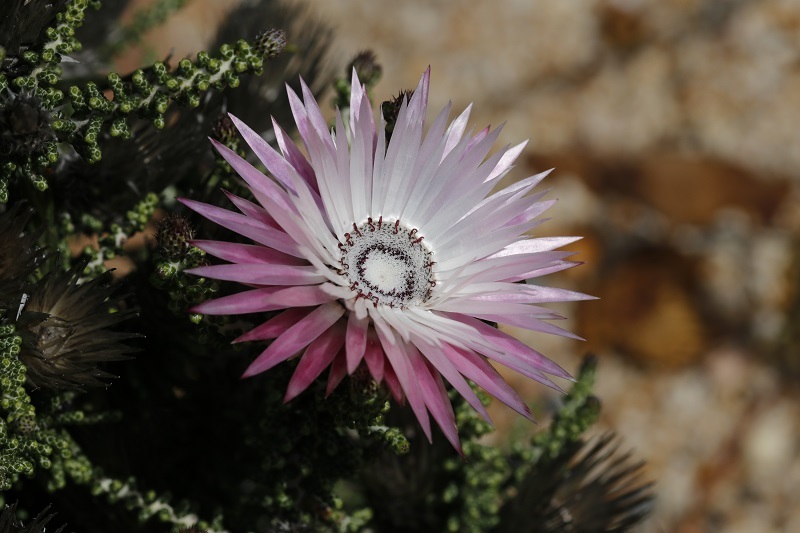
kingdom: Plantae
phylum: Tracheophyta
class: Magnoliopsida
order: Asterales
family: Asteraceae
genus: Phaenocoma
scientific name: Phaenocoma prolifera
